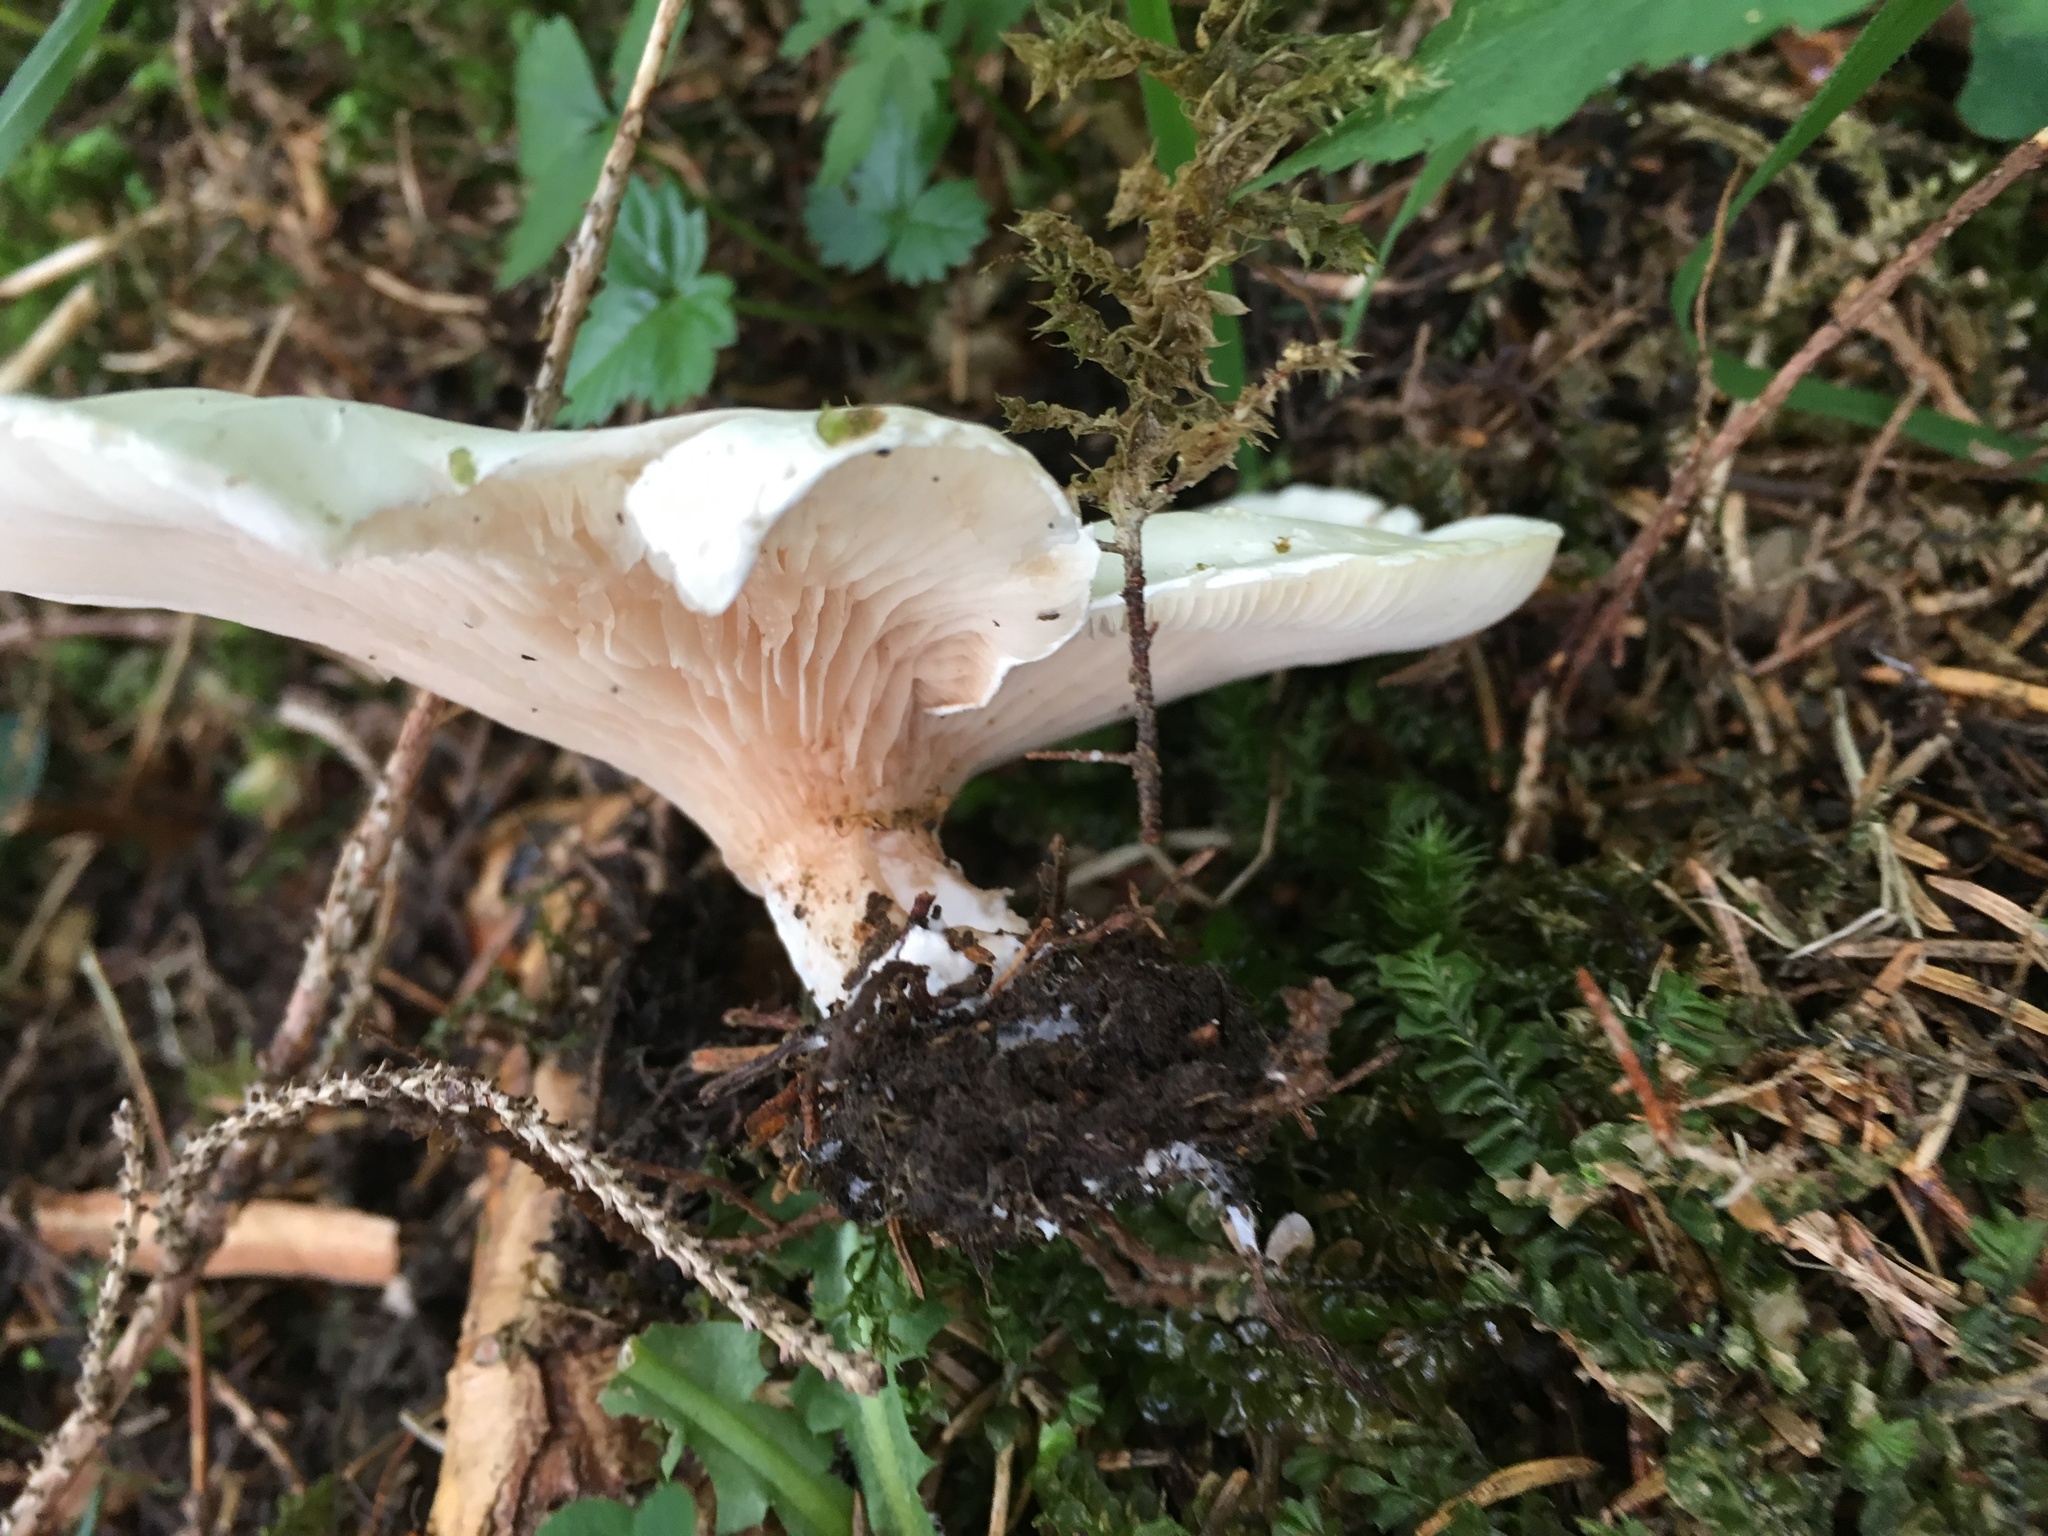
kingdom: Fungi
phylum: Basidiomycota
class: Agaricomycetes
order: Agaricales
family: Entolomataceae
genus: Clitopilus
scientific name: Clitopilus prunulus
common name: The miller
